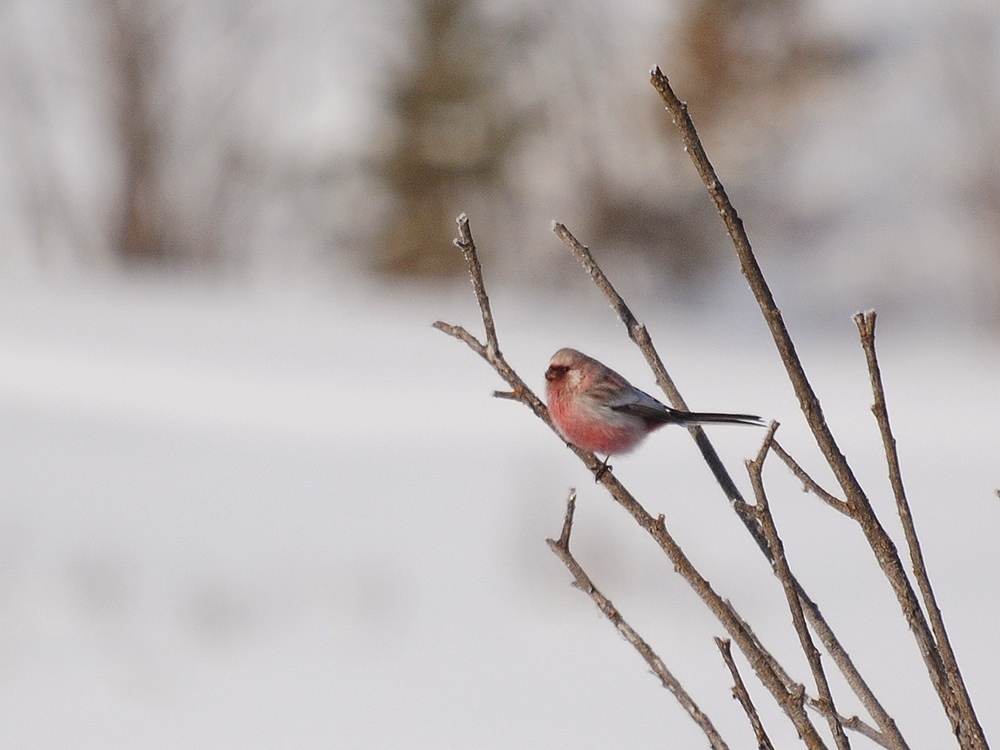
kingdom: Animalia
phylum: Chordata
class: Aves
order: Passeriformes
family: Fringillidae
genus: Carpodacus
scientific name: Carpodacus sibiricus
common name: Long-tailed rosefinch
